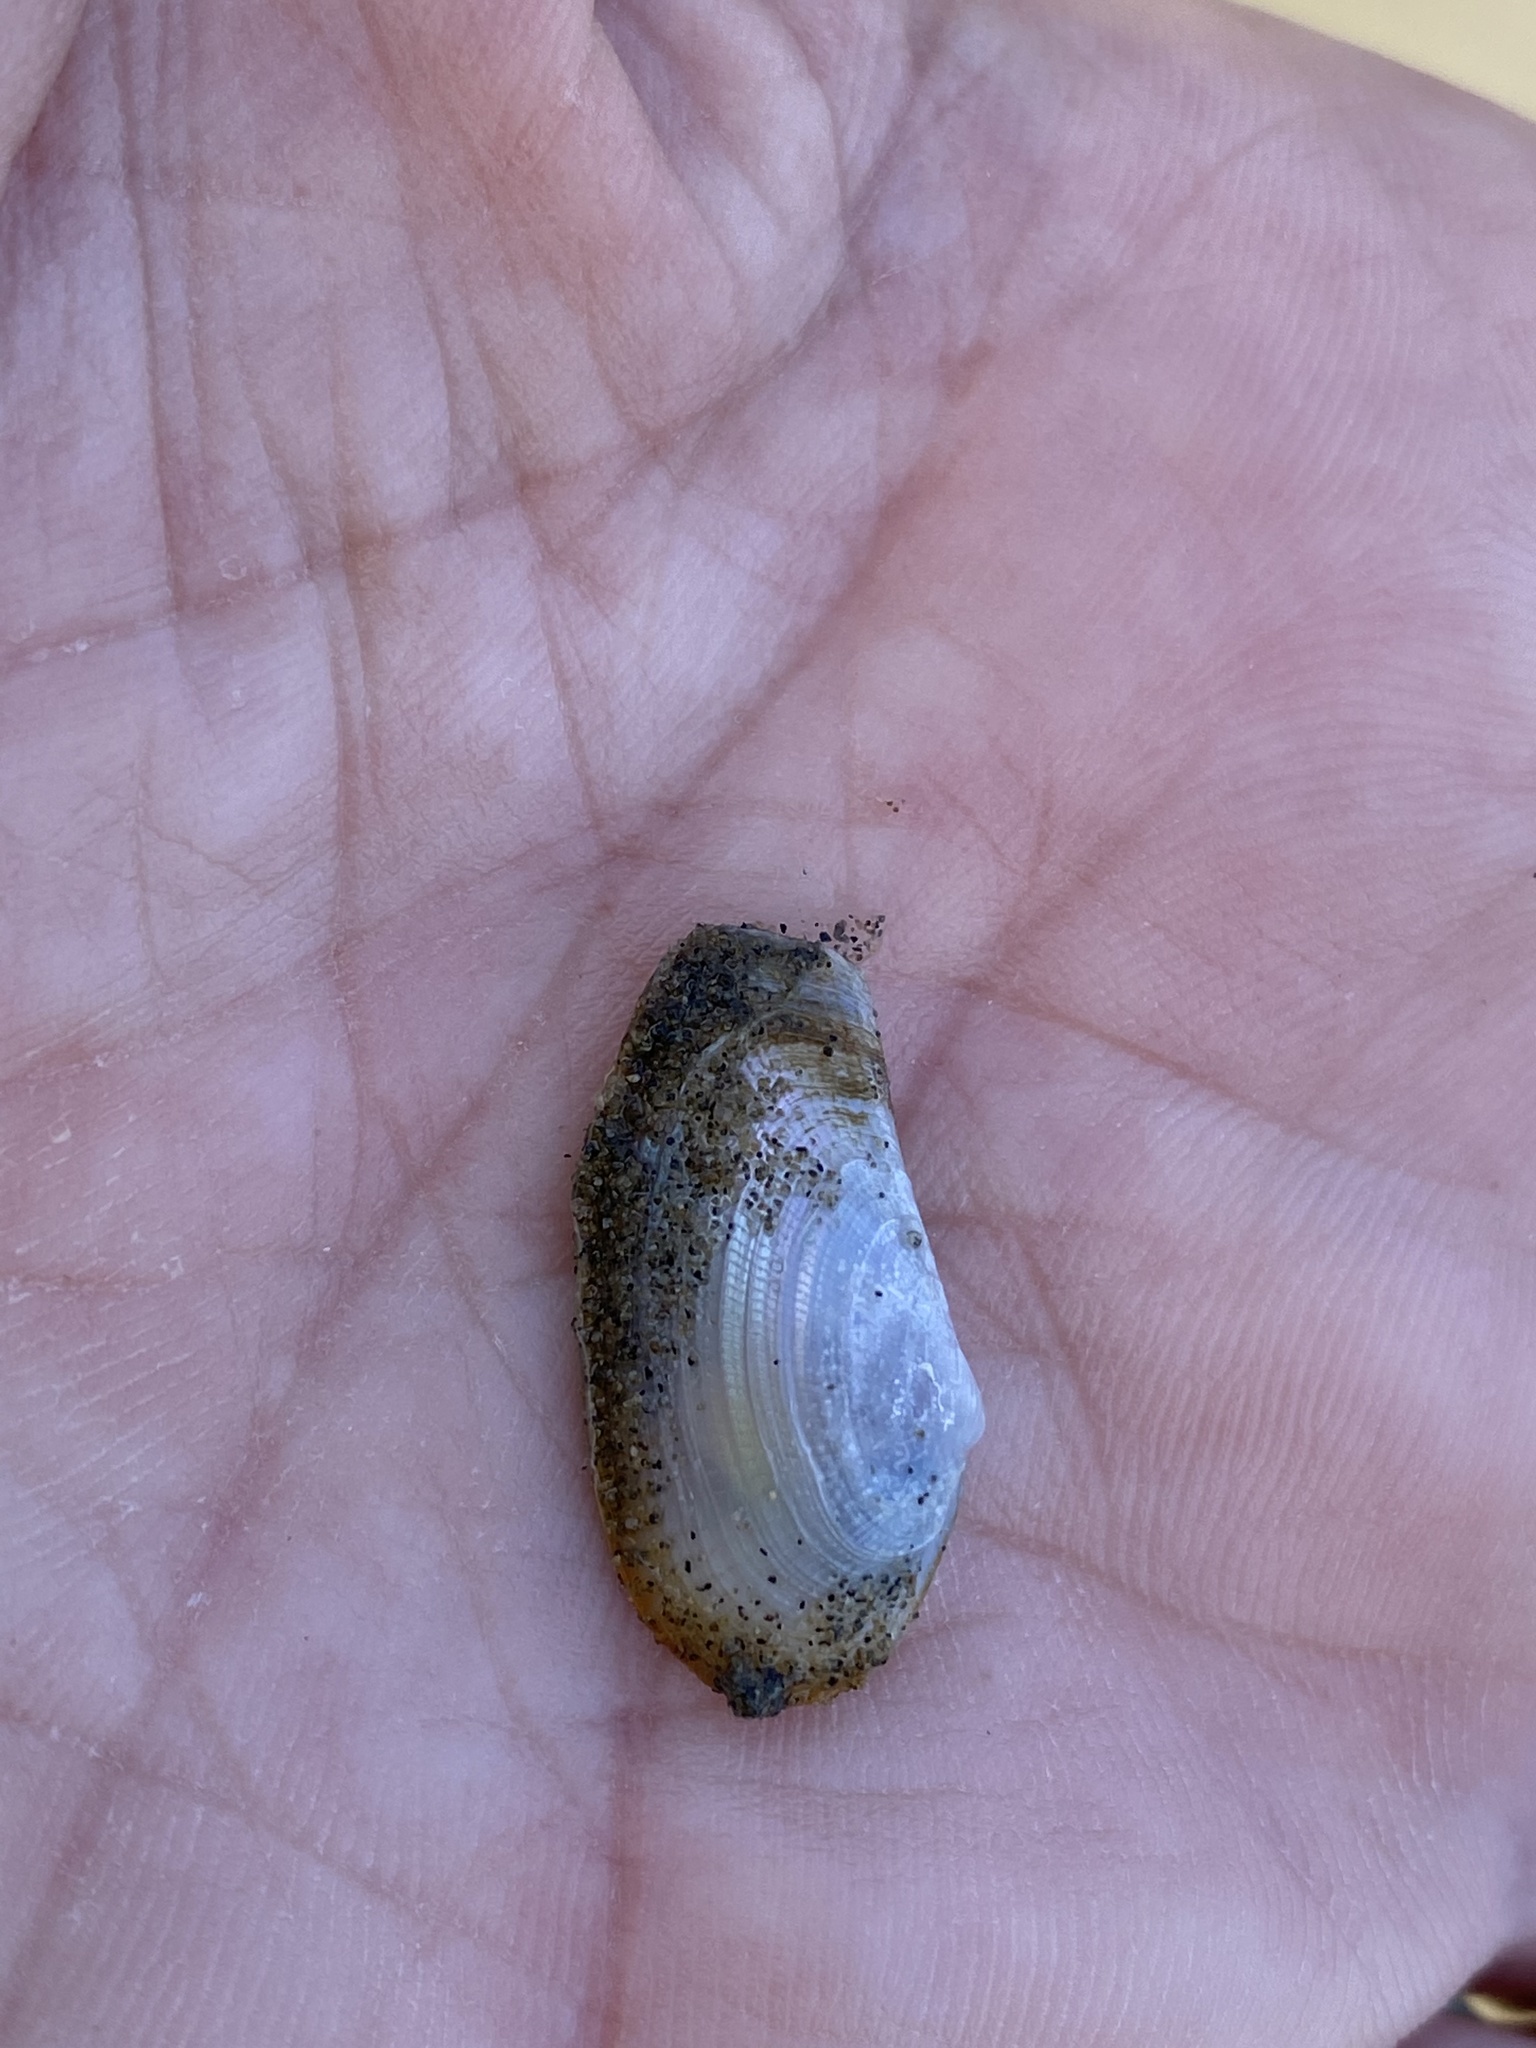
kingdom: Animalia
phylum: Mollusca
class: Bivalvia
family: Lyonsiidae
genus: Lyonsia
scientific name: Lyonsia californica
